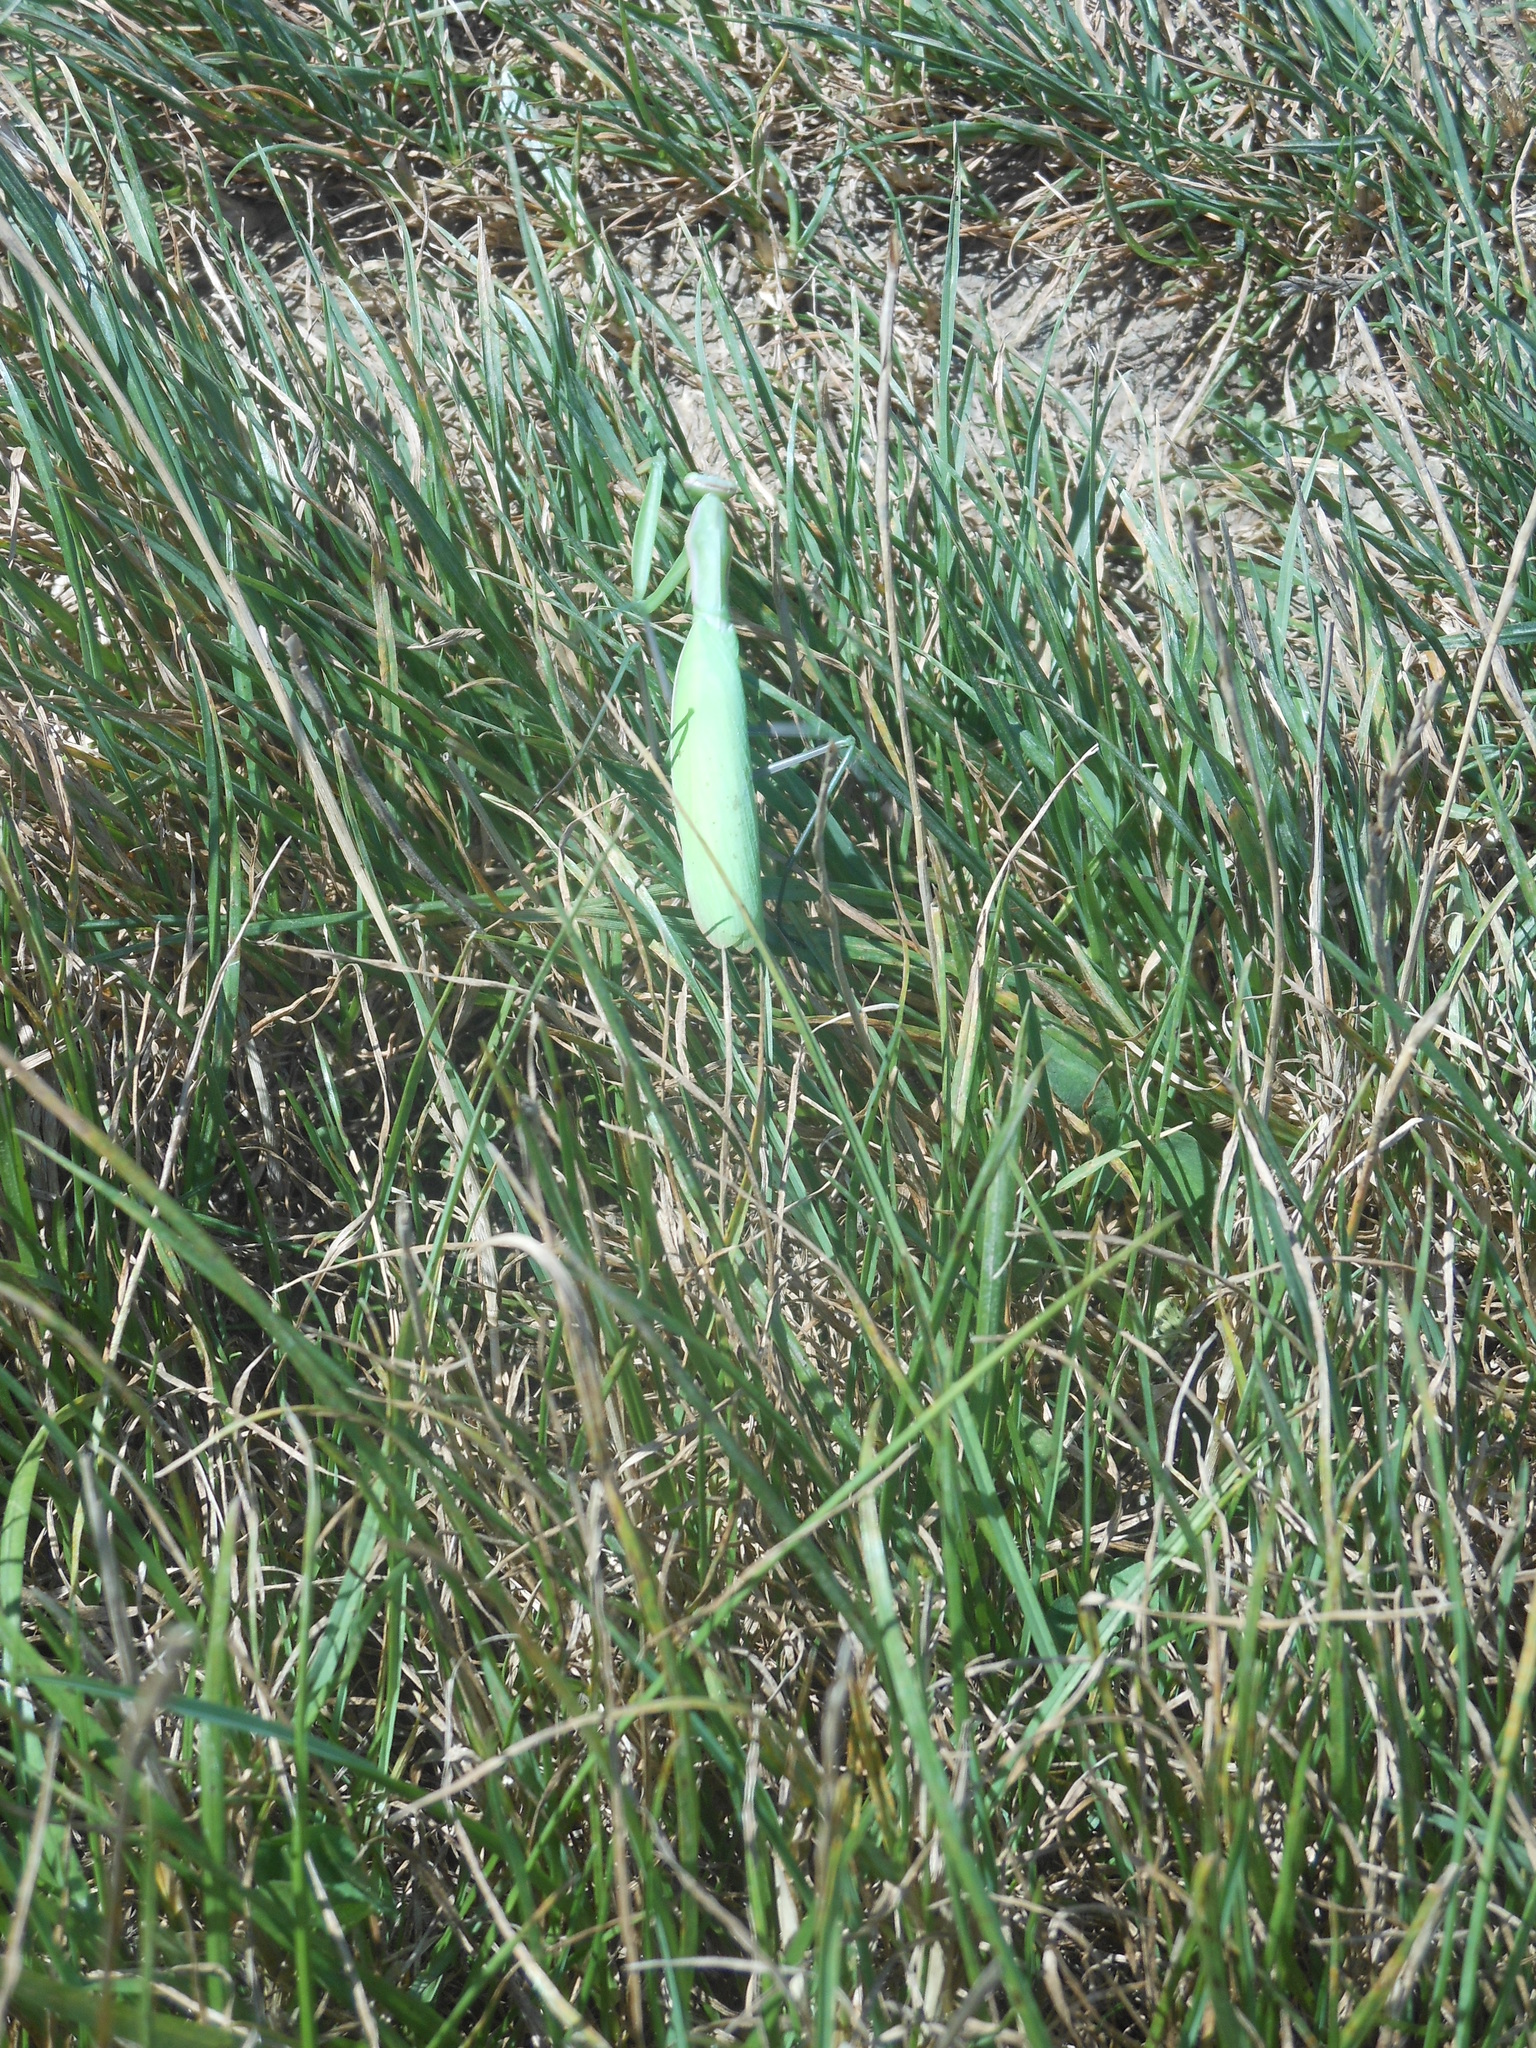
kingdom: Animalia
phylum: Arthropoda
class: Insecta
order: Mantodea
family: Mantidae
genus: Mantis
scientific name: Mantis religiosa
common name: Praying mantis
